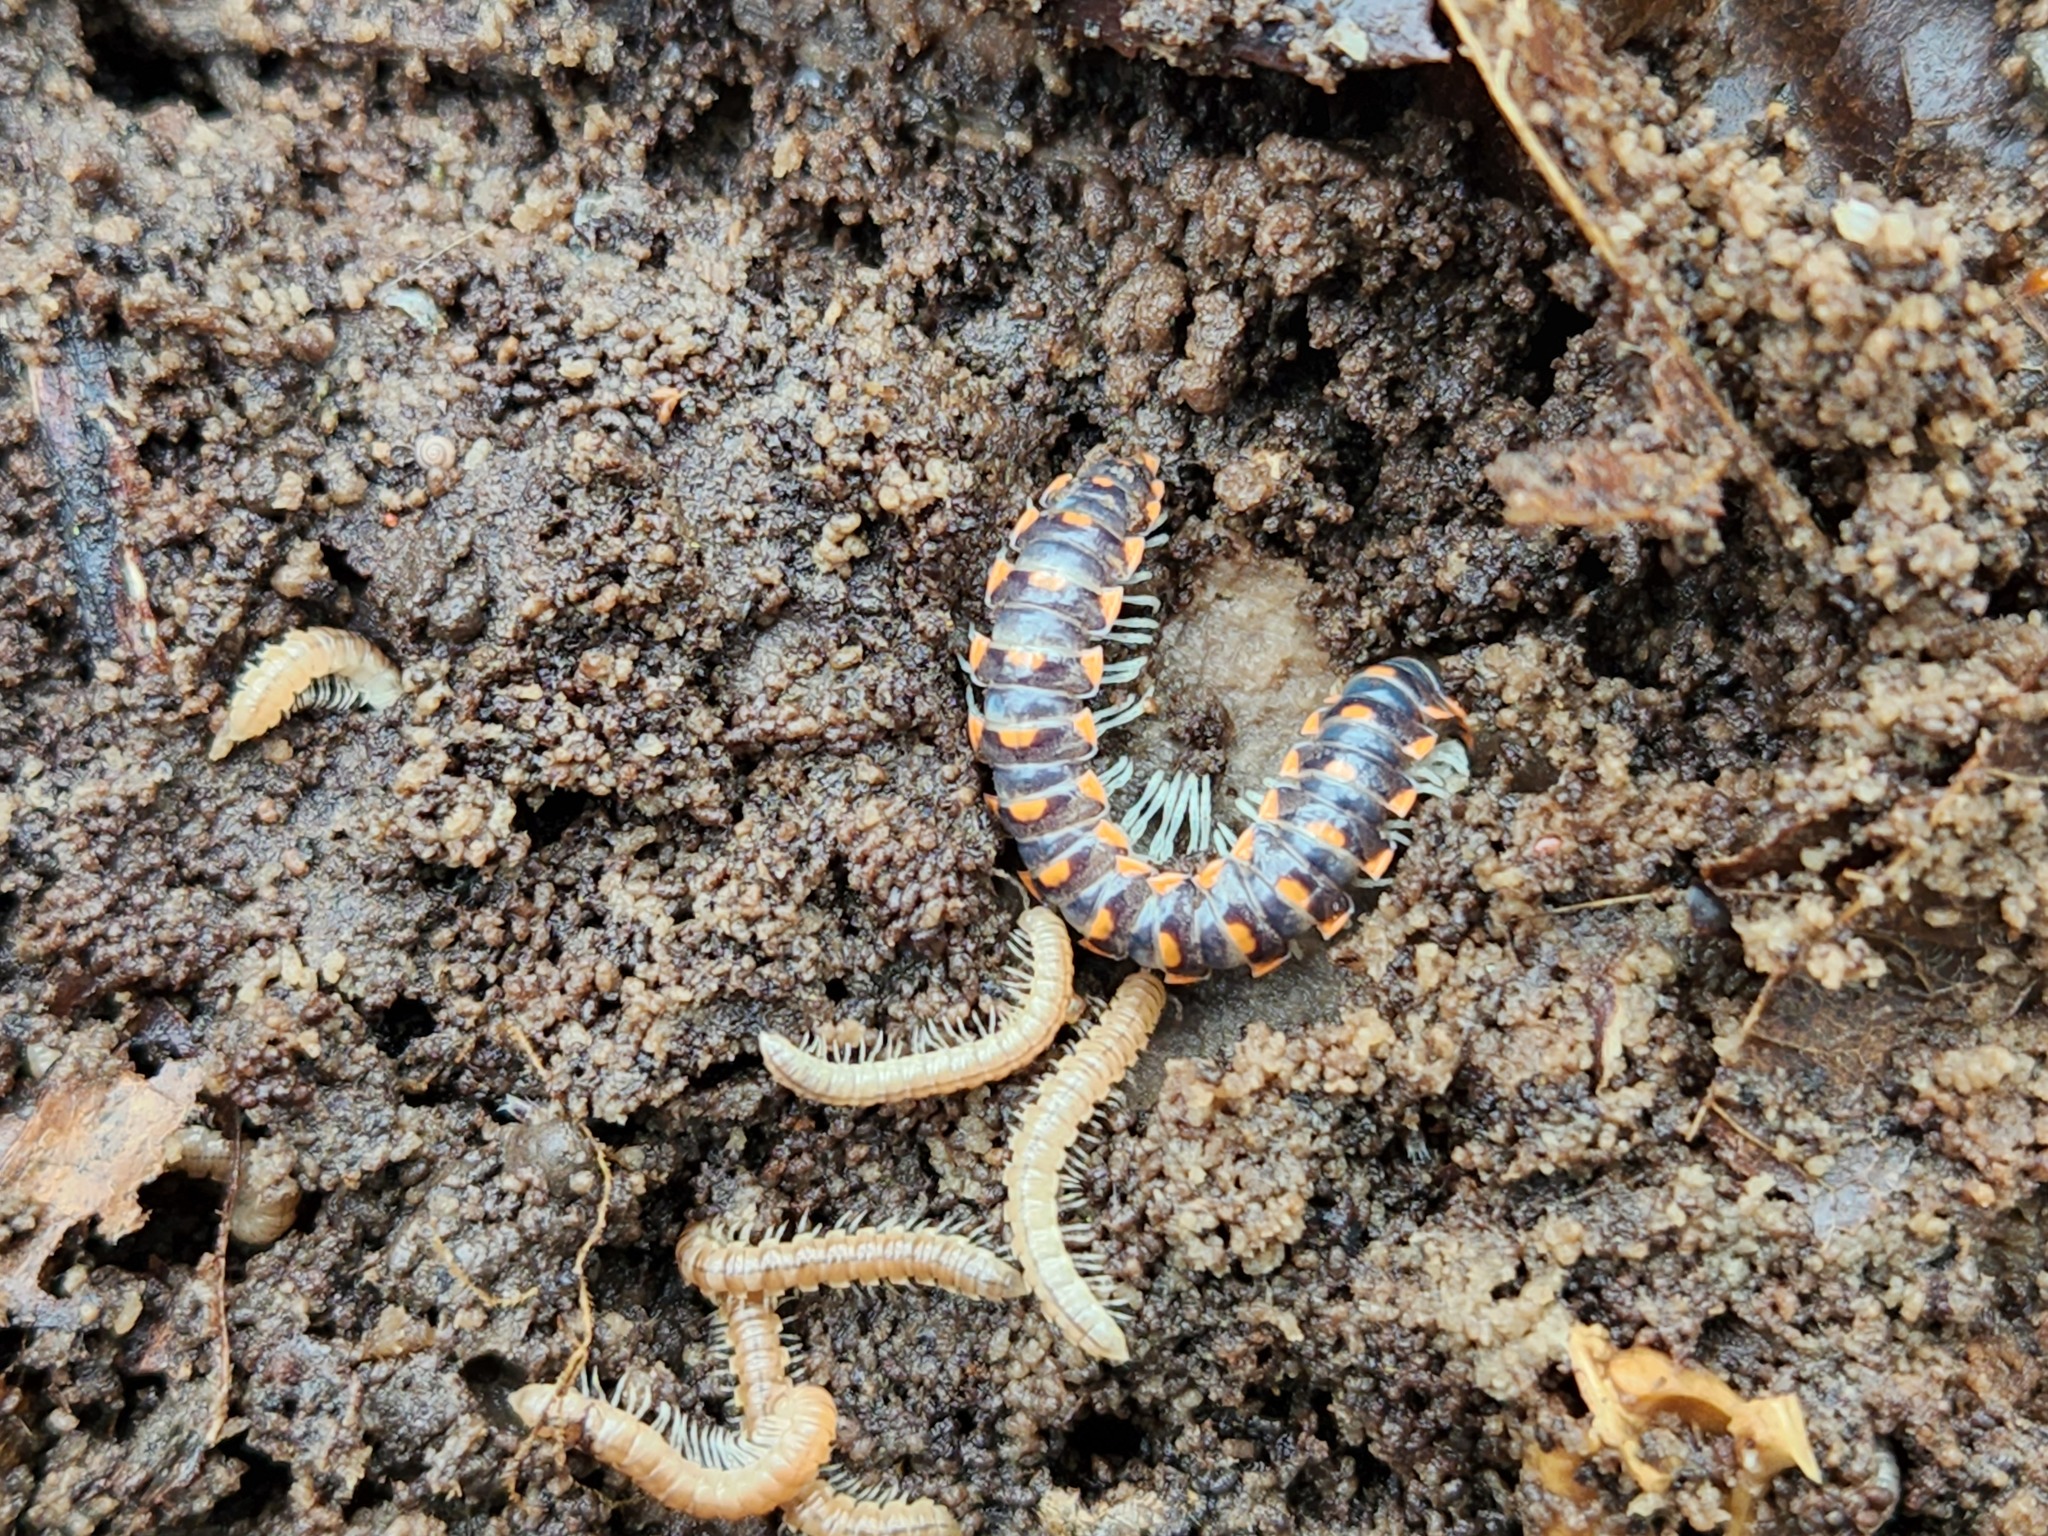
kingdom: Animalia
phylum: Arthropoda
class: Diplopoda
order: Polydesmida
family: Xystodesmidae
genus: Euryurus
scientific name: Euryurus leachii
